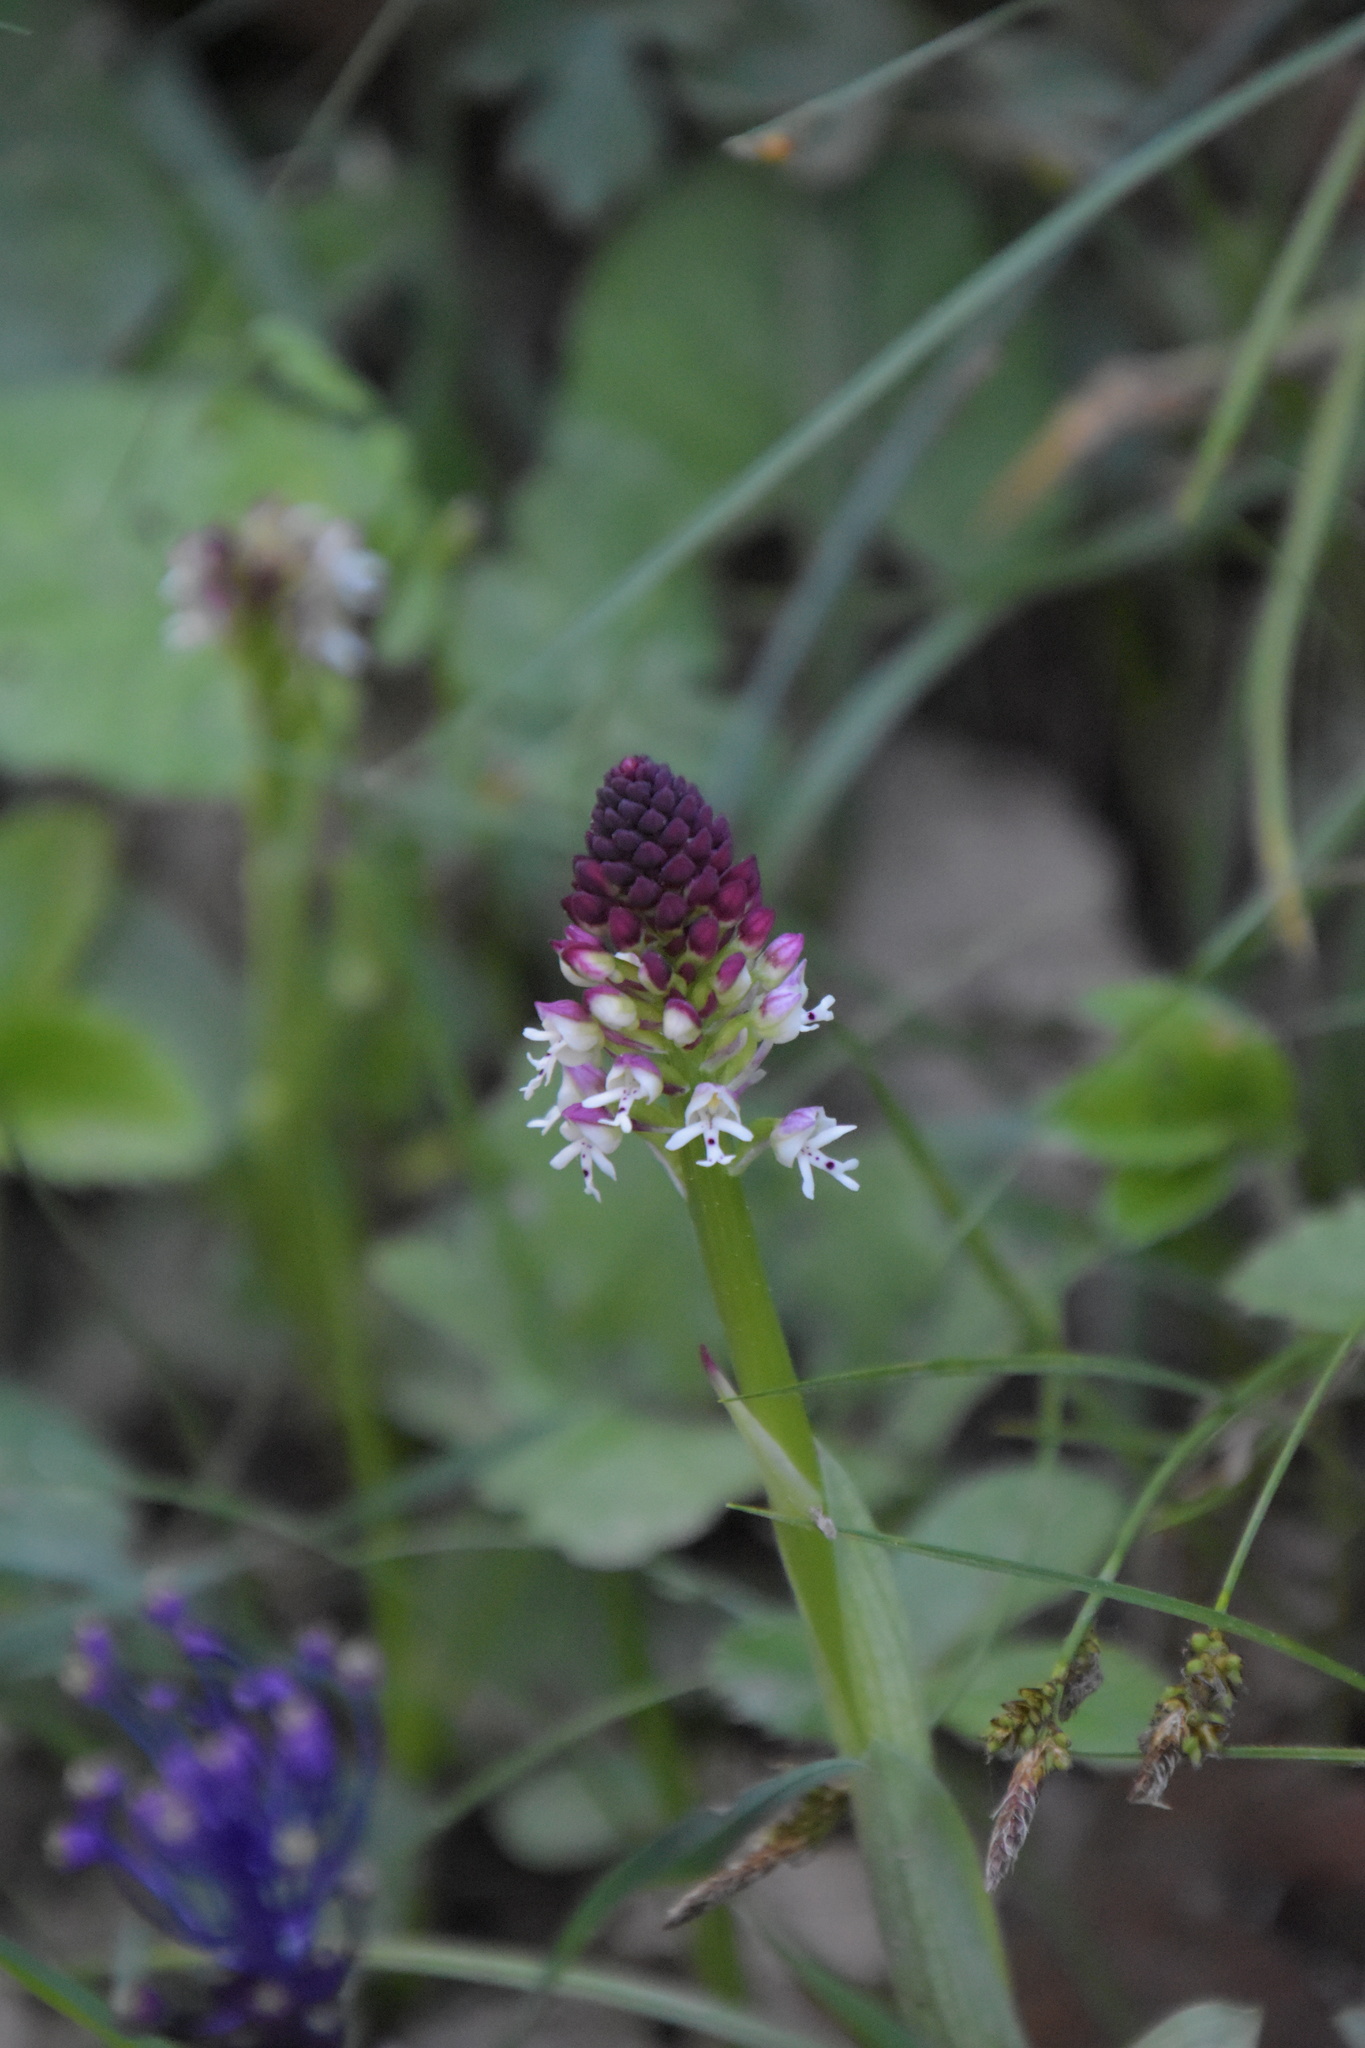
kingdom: Plantae
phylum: Tracheophyta
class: Liliopsida
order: Asparagales
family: Orchidaceae
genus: Neotinea
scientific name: Neotinea ustulata
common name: Burnt orchid
